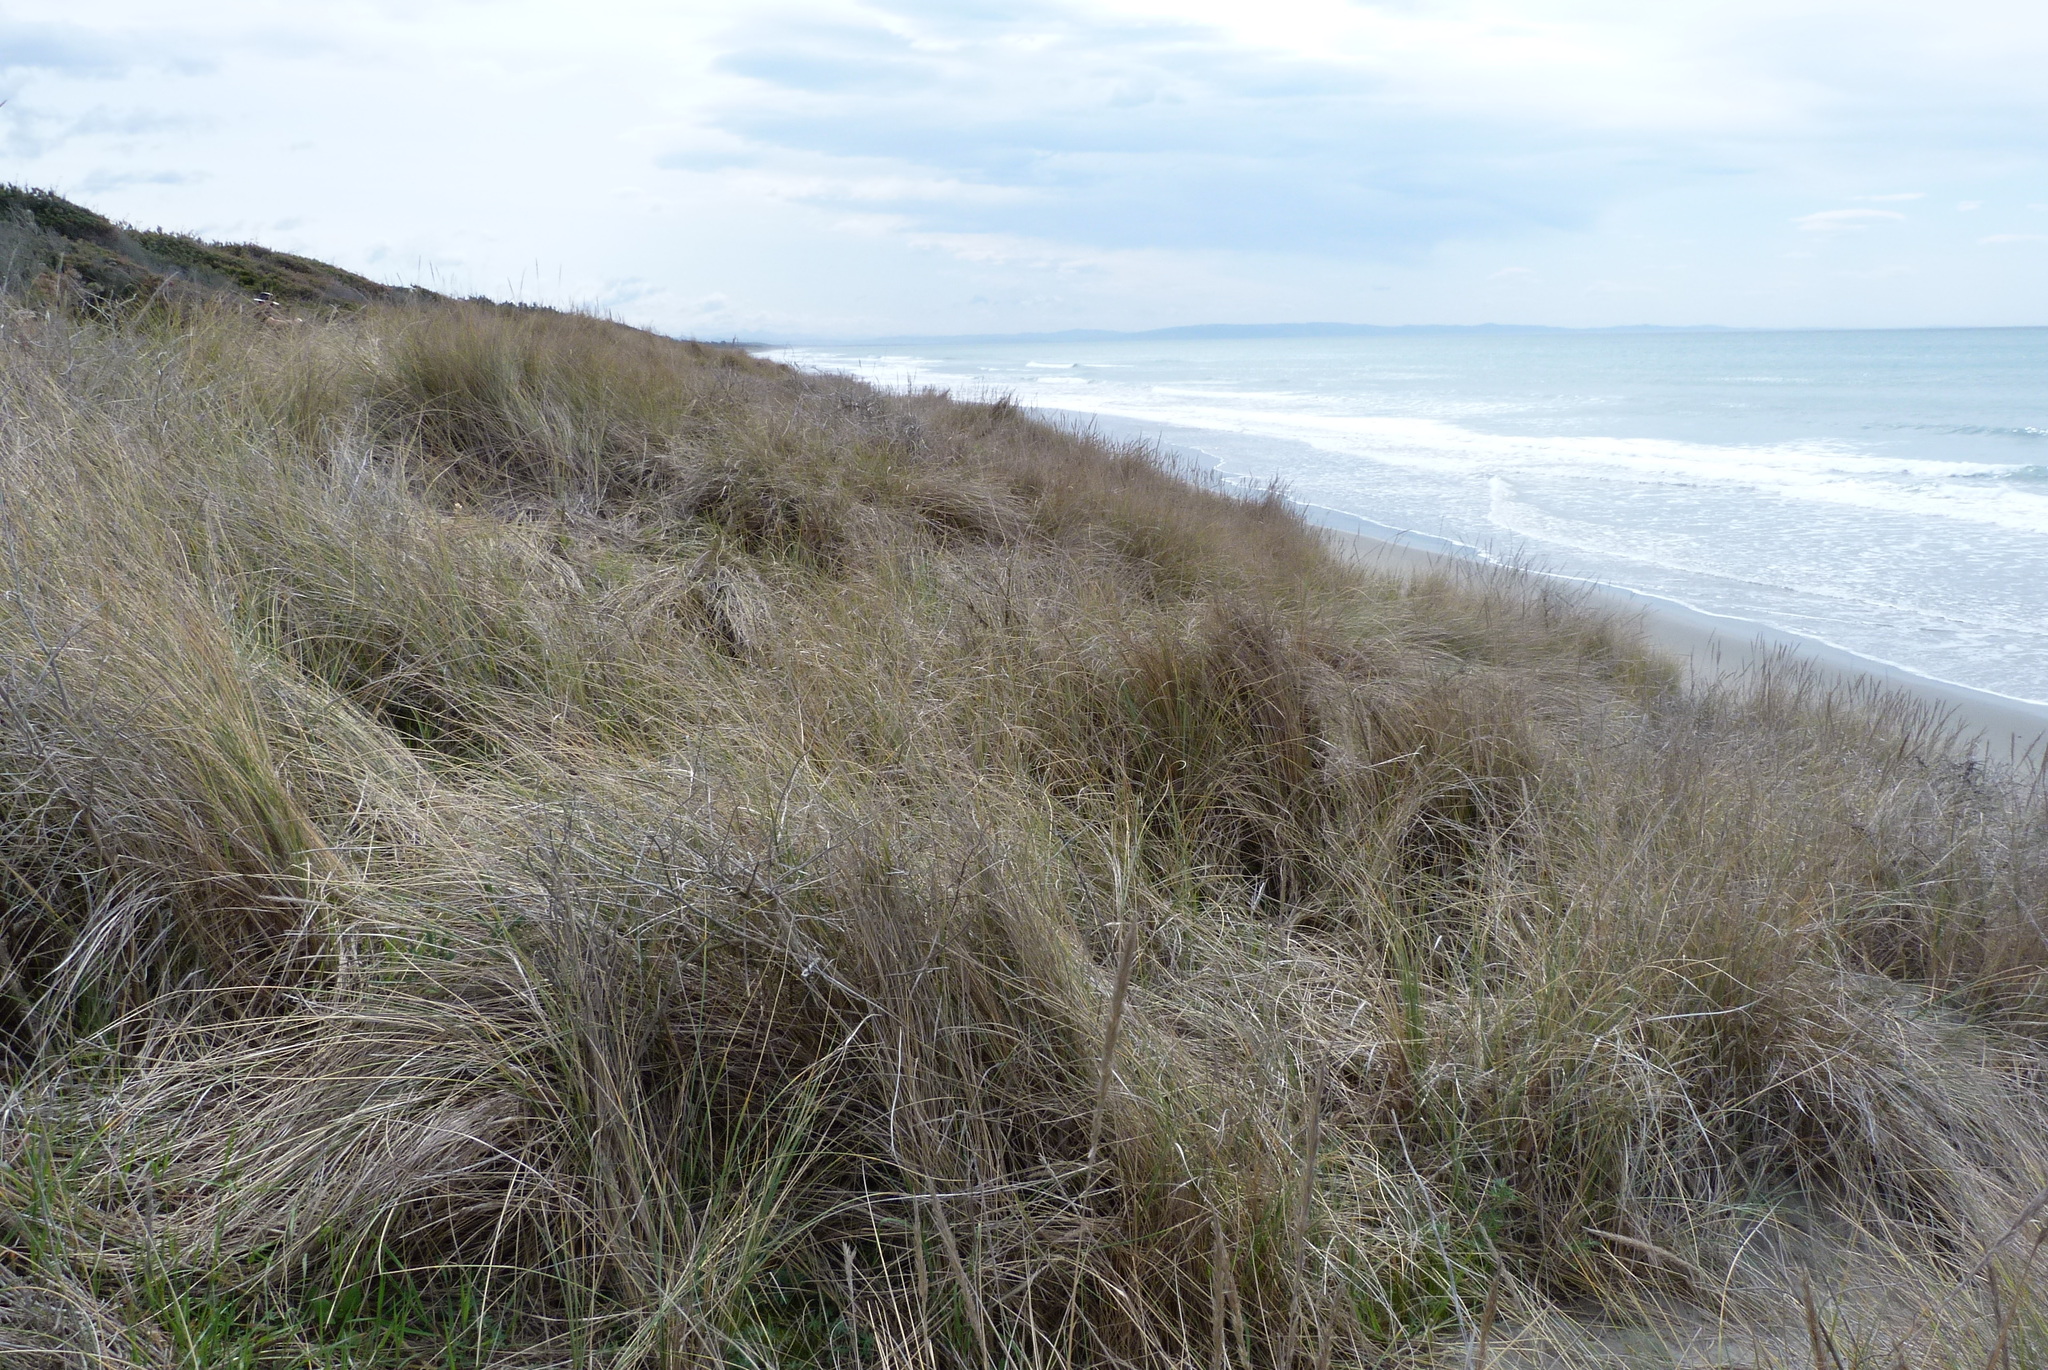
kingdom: Plantae
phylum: Tracheophyta
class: Liliopsida
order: Poales
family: Poaceae
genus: Calamagrostis
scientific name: Calamagrostis arenaria
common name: European beachgrass
